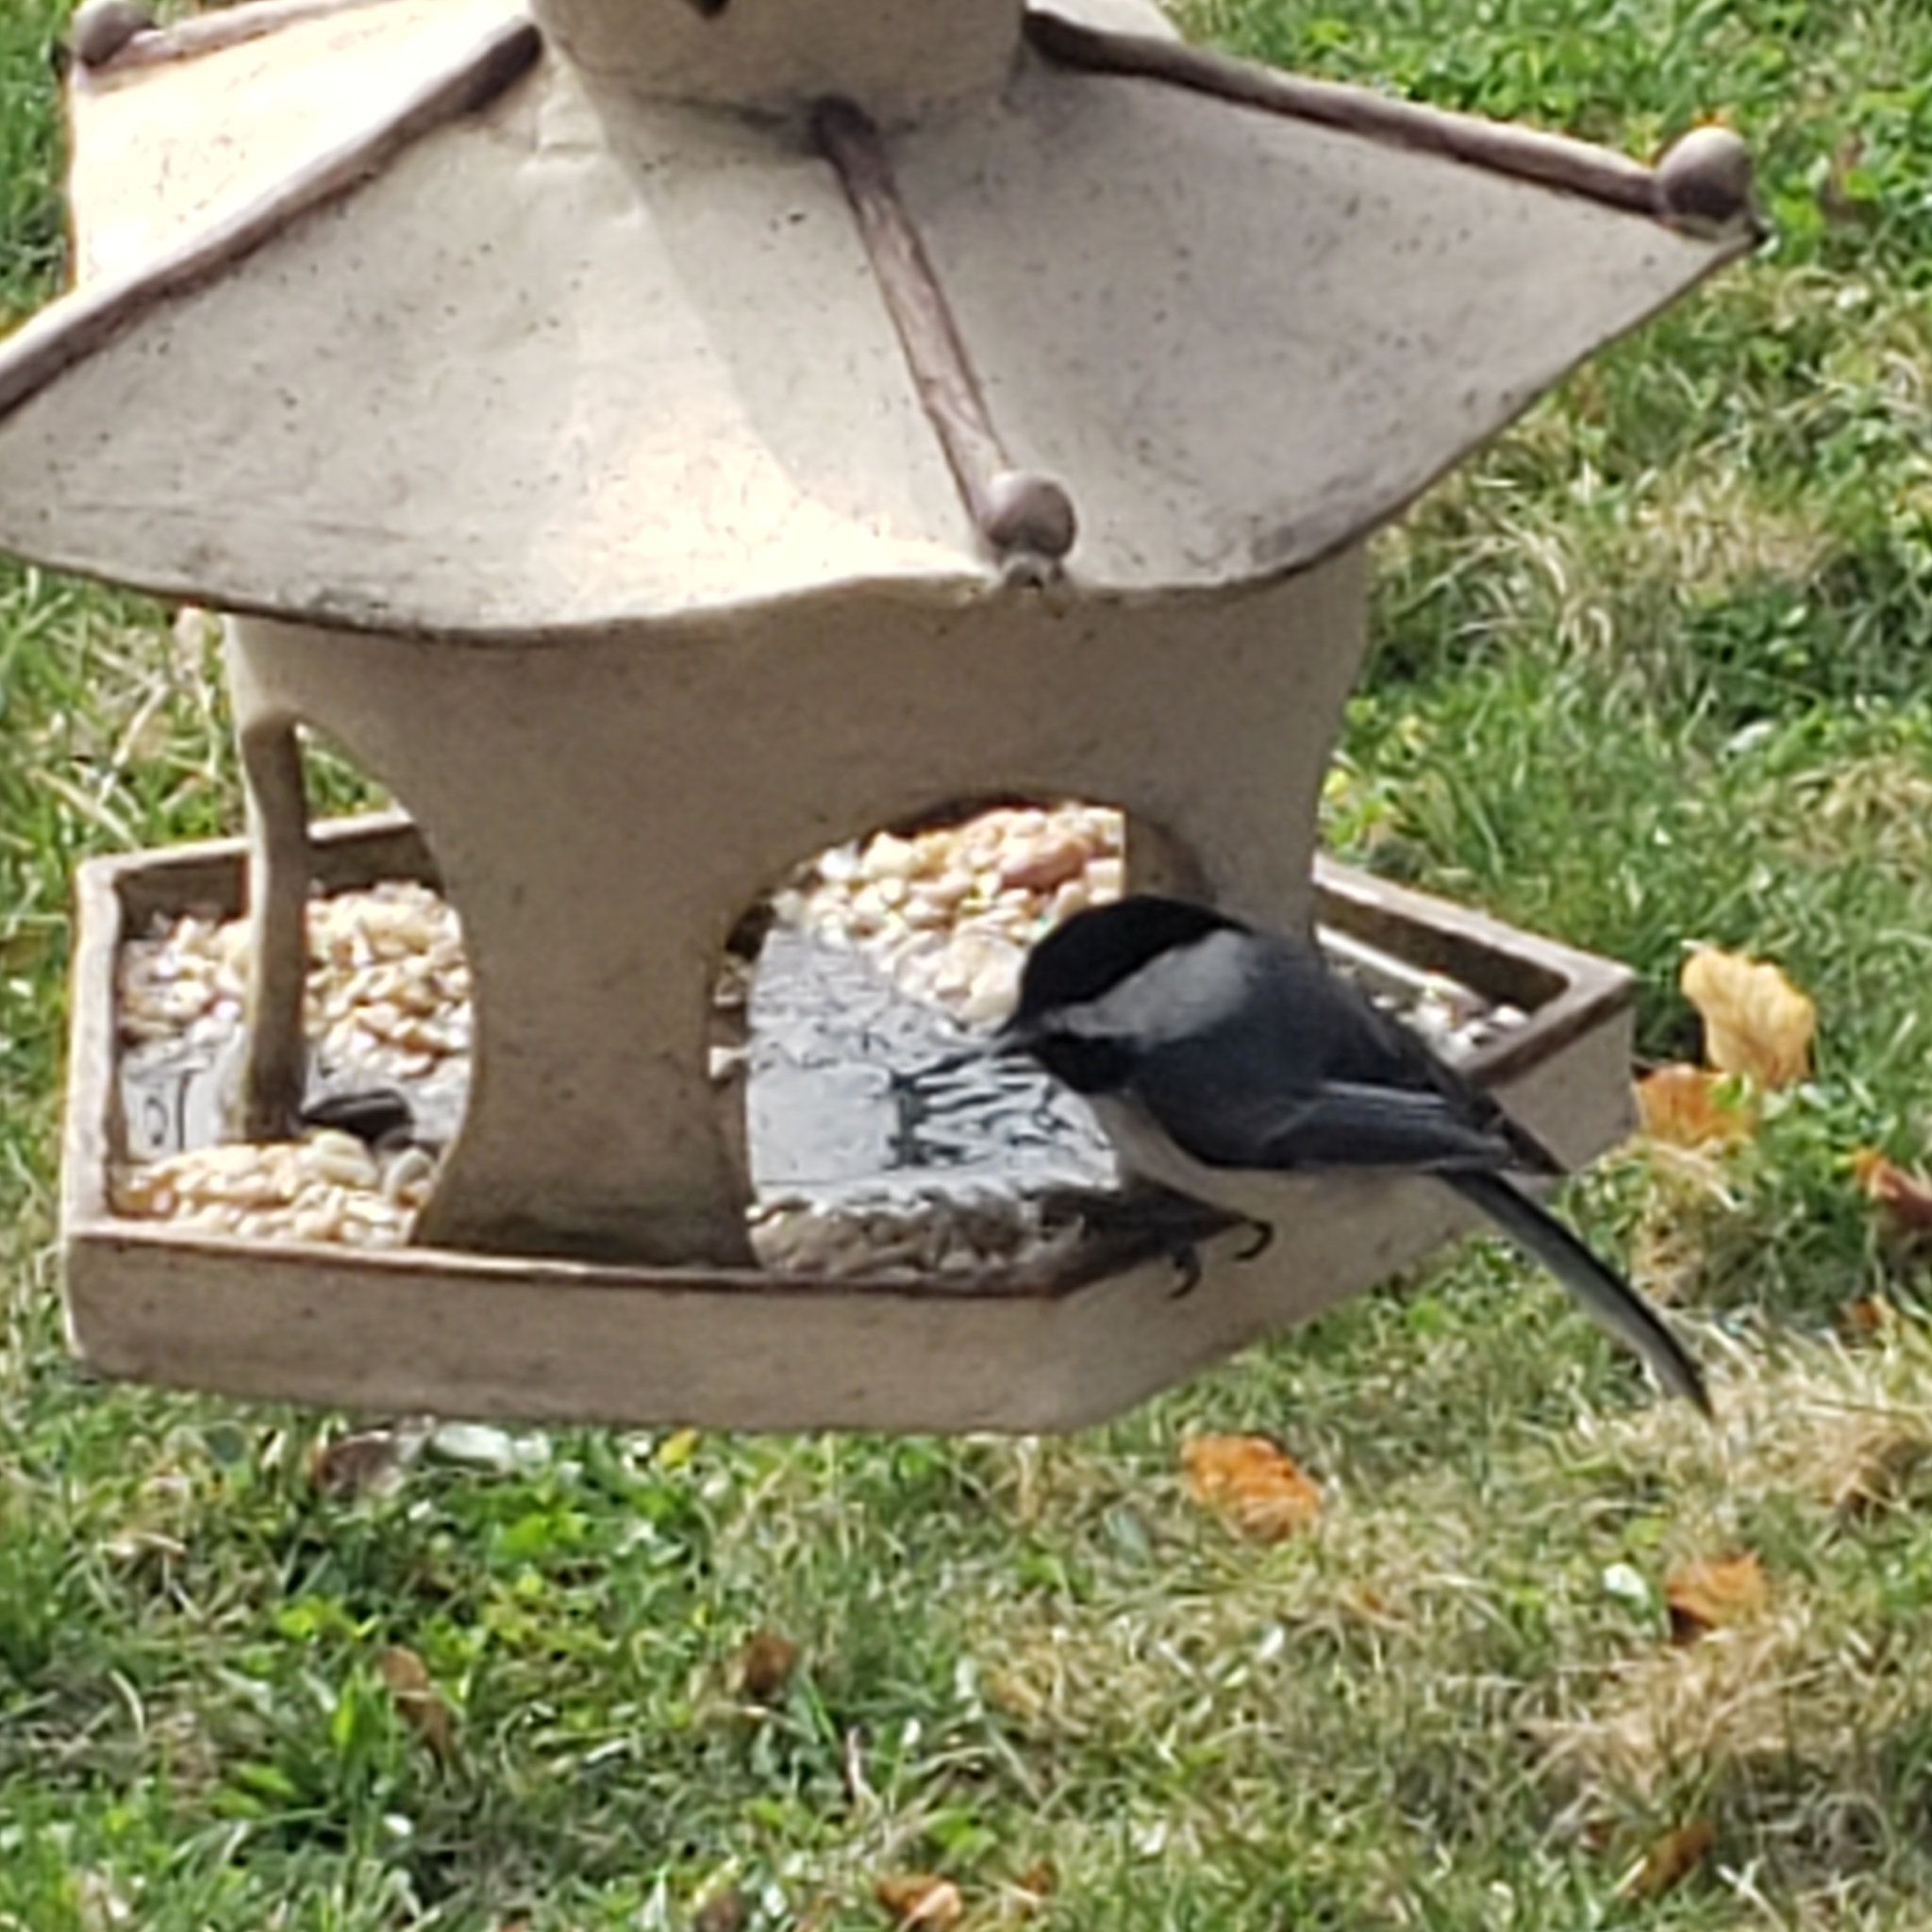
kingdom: Animalia
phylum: Chordata
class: Aves
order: Passeriformes
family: Paridae
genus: Poecile
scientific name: Poecile atricapillus
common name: Black-capped chickadee
